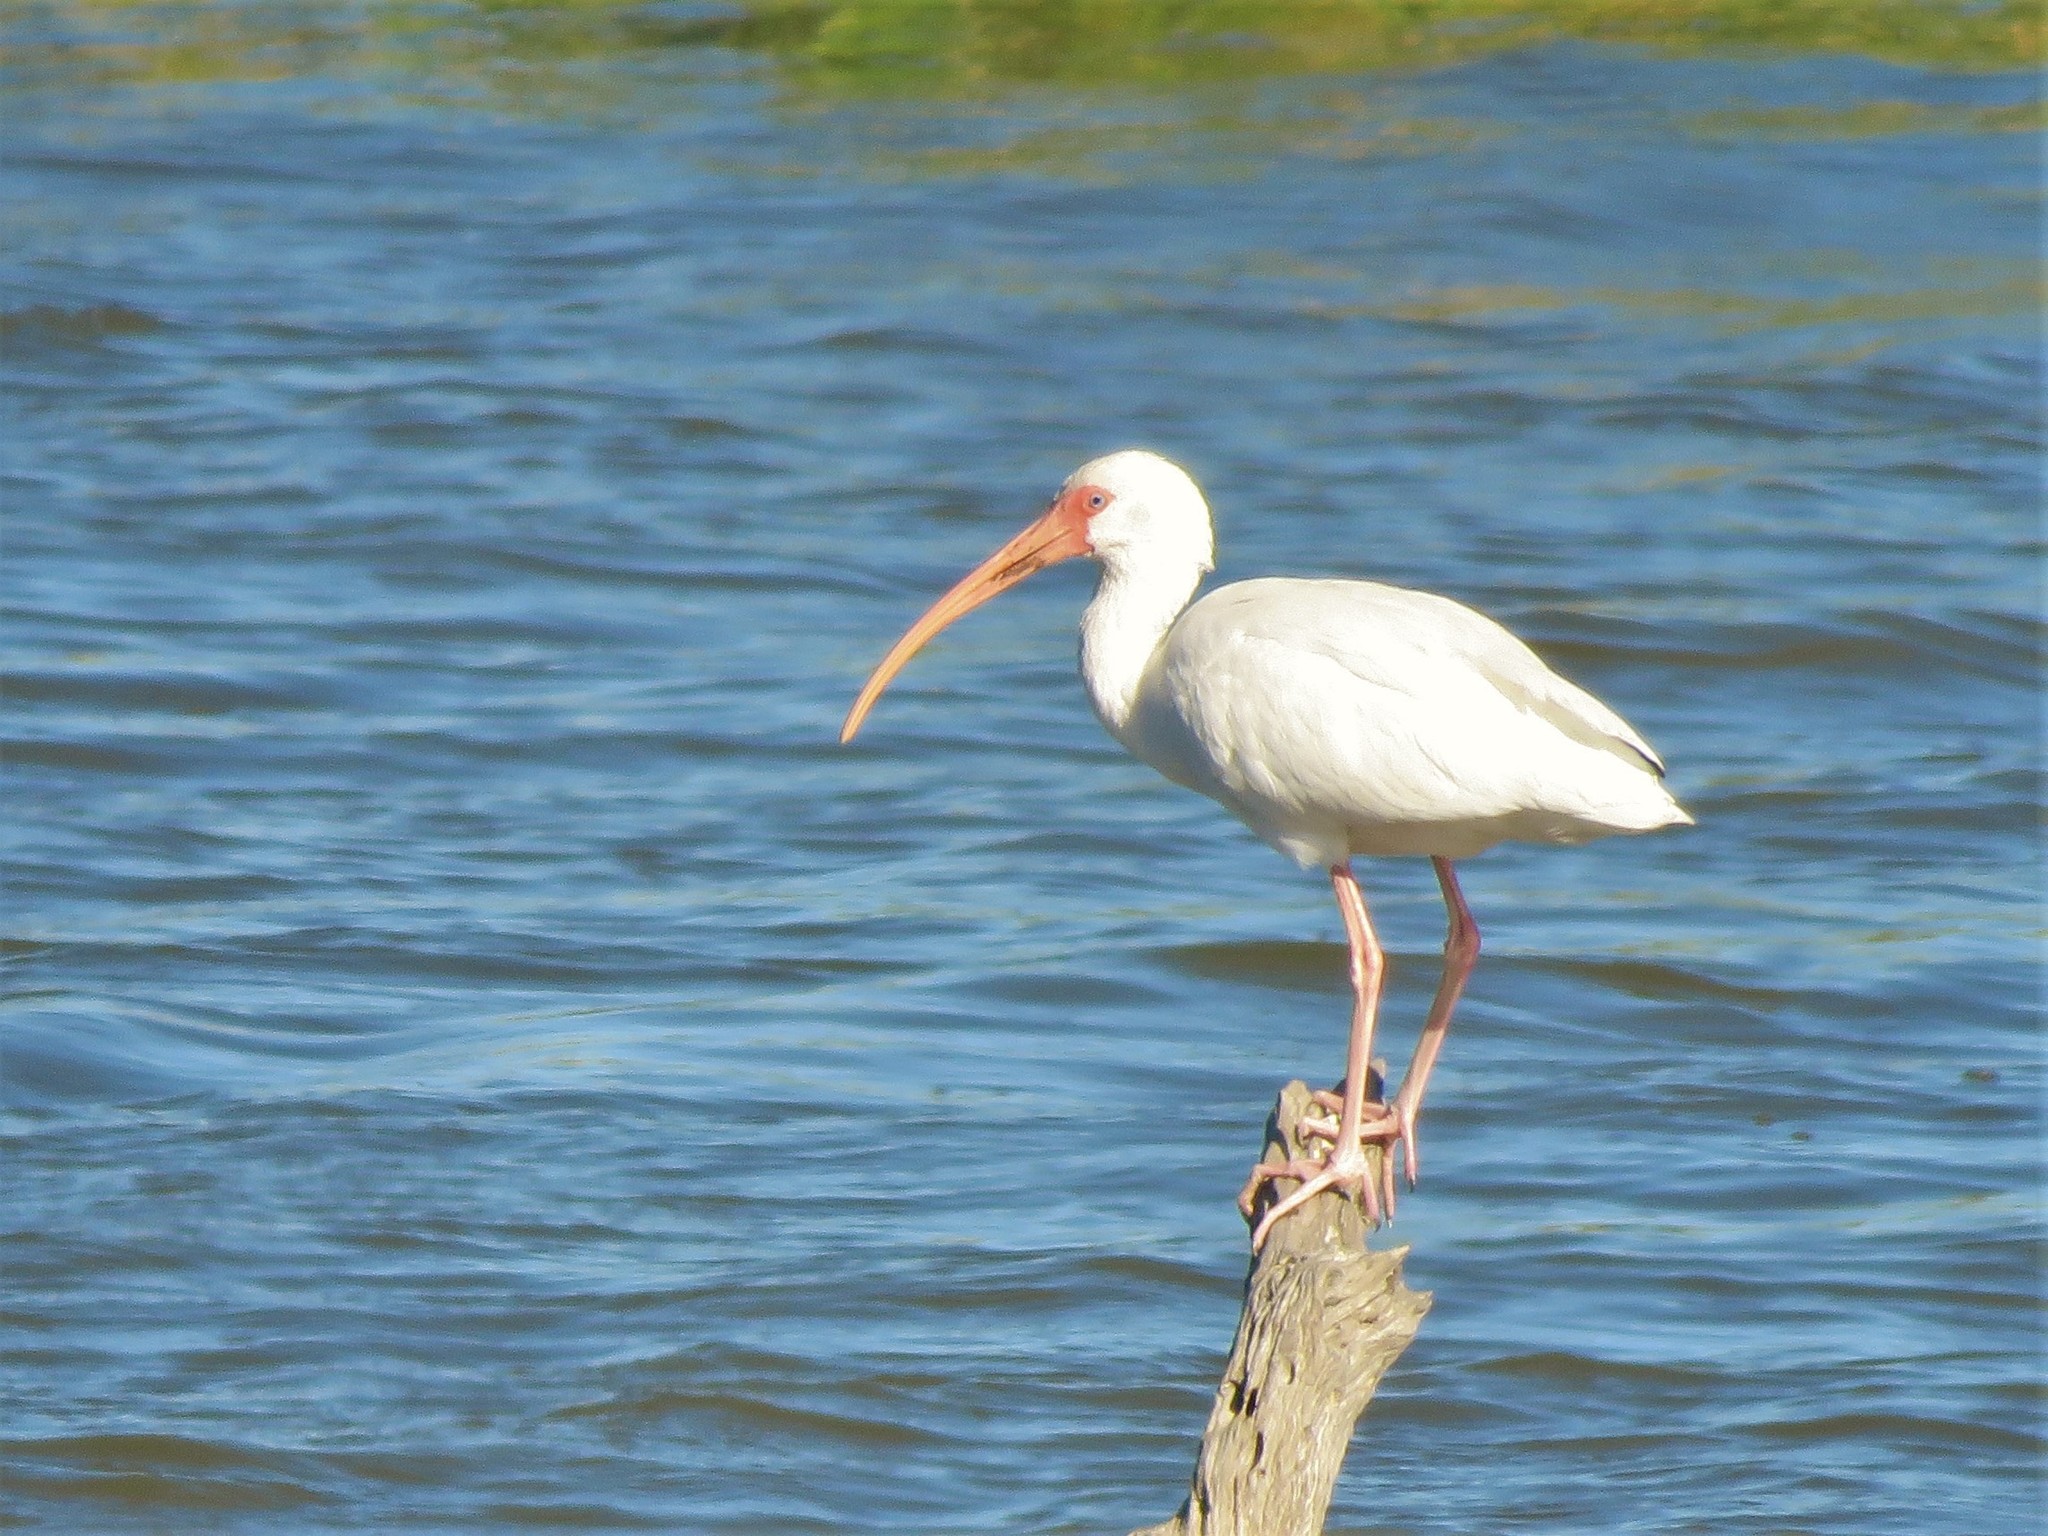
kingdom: Animalia
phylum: Chordata
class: Aves
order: Pelecaniformes
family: Threskiornithidae
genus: Eudocimus
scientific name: Eudocimus albus
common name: White ibis
